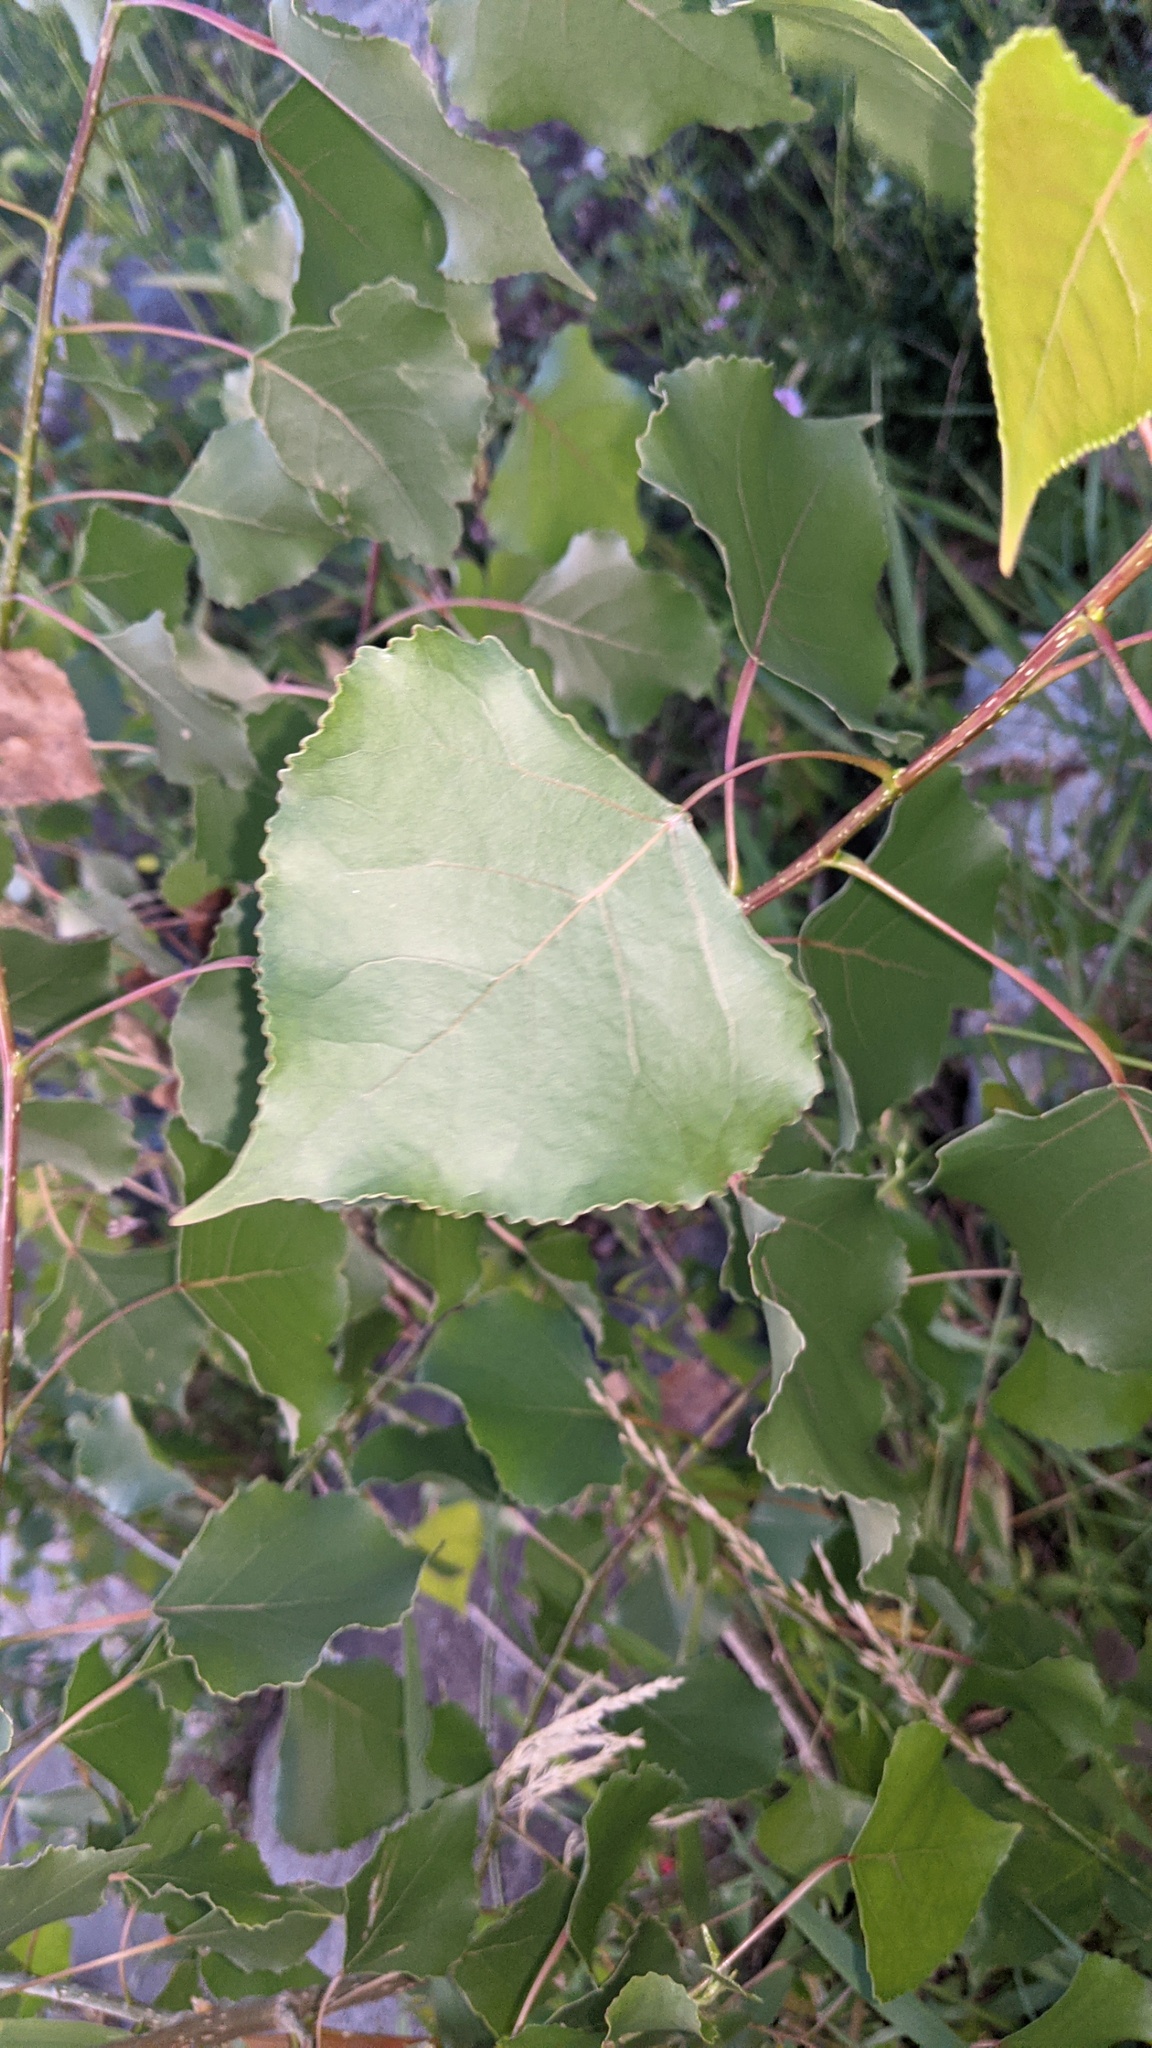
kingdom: Plantae
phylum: Tracheophyta
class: Magnoliopsida
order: Malpighiales
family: Salicaceae
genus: Populus
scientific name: Populus deltoides
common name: Eastern cottonwood
